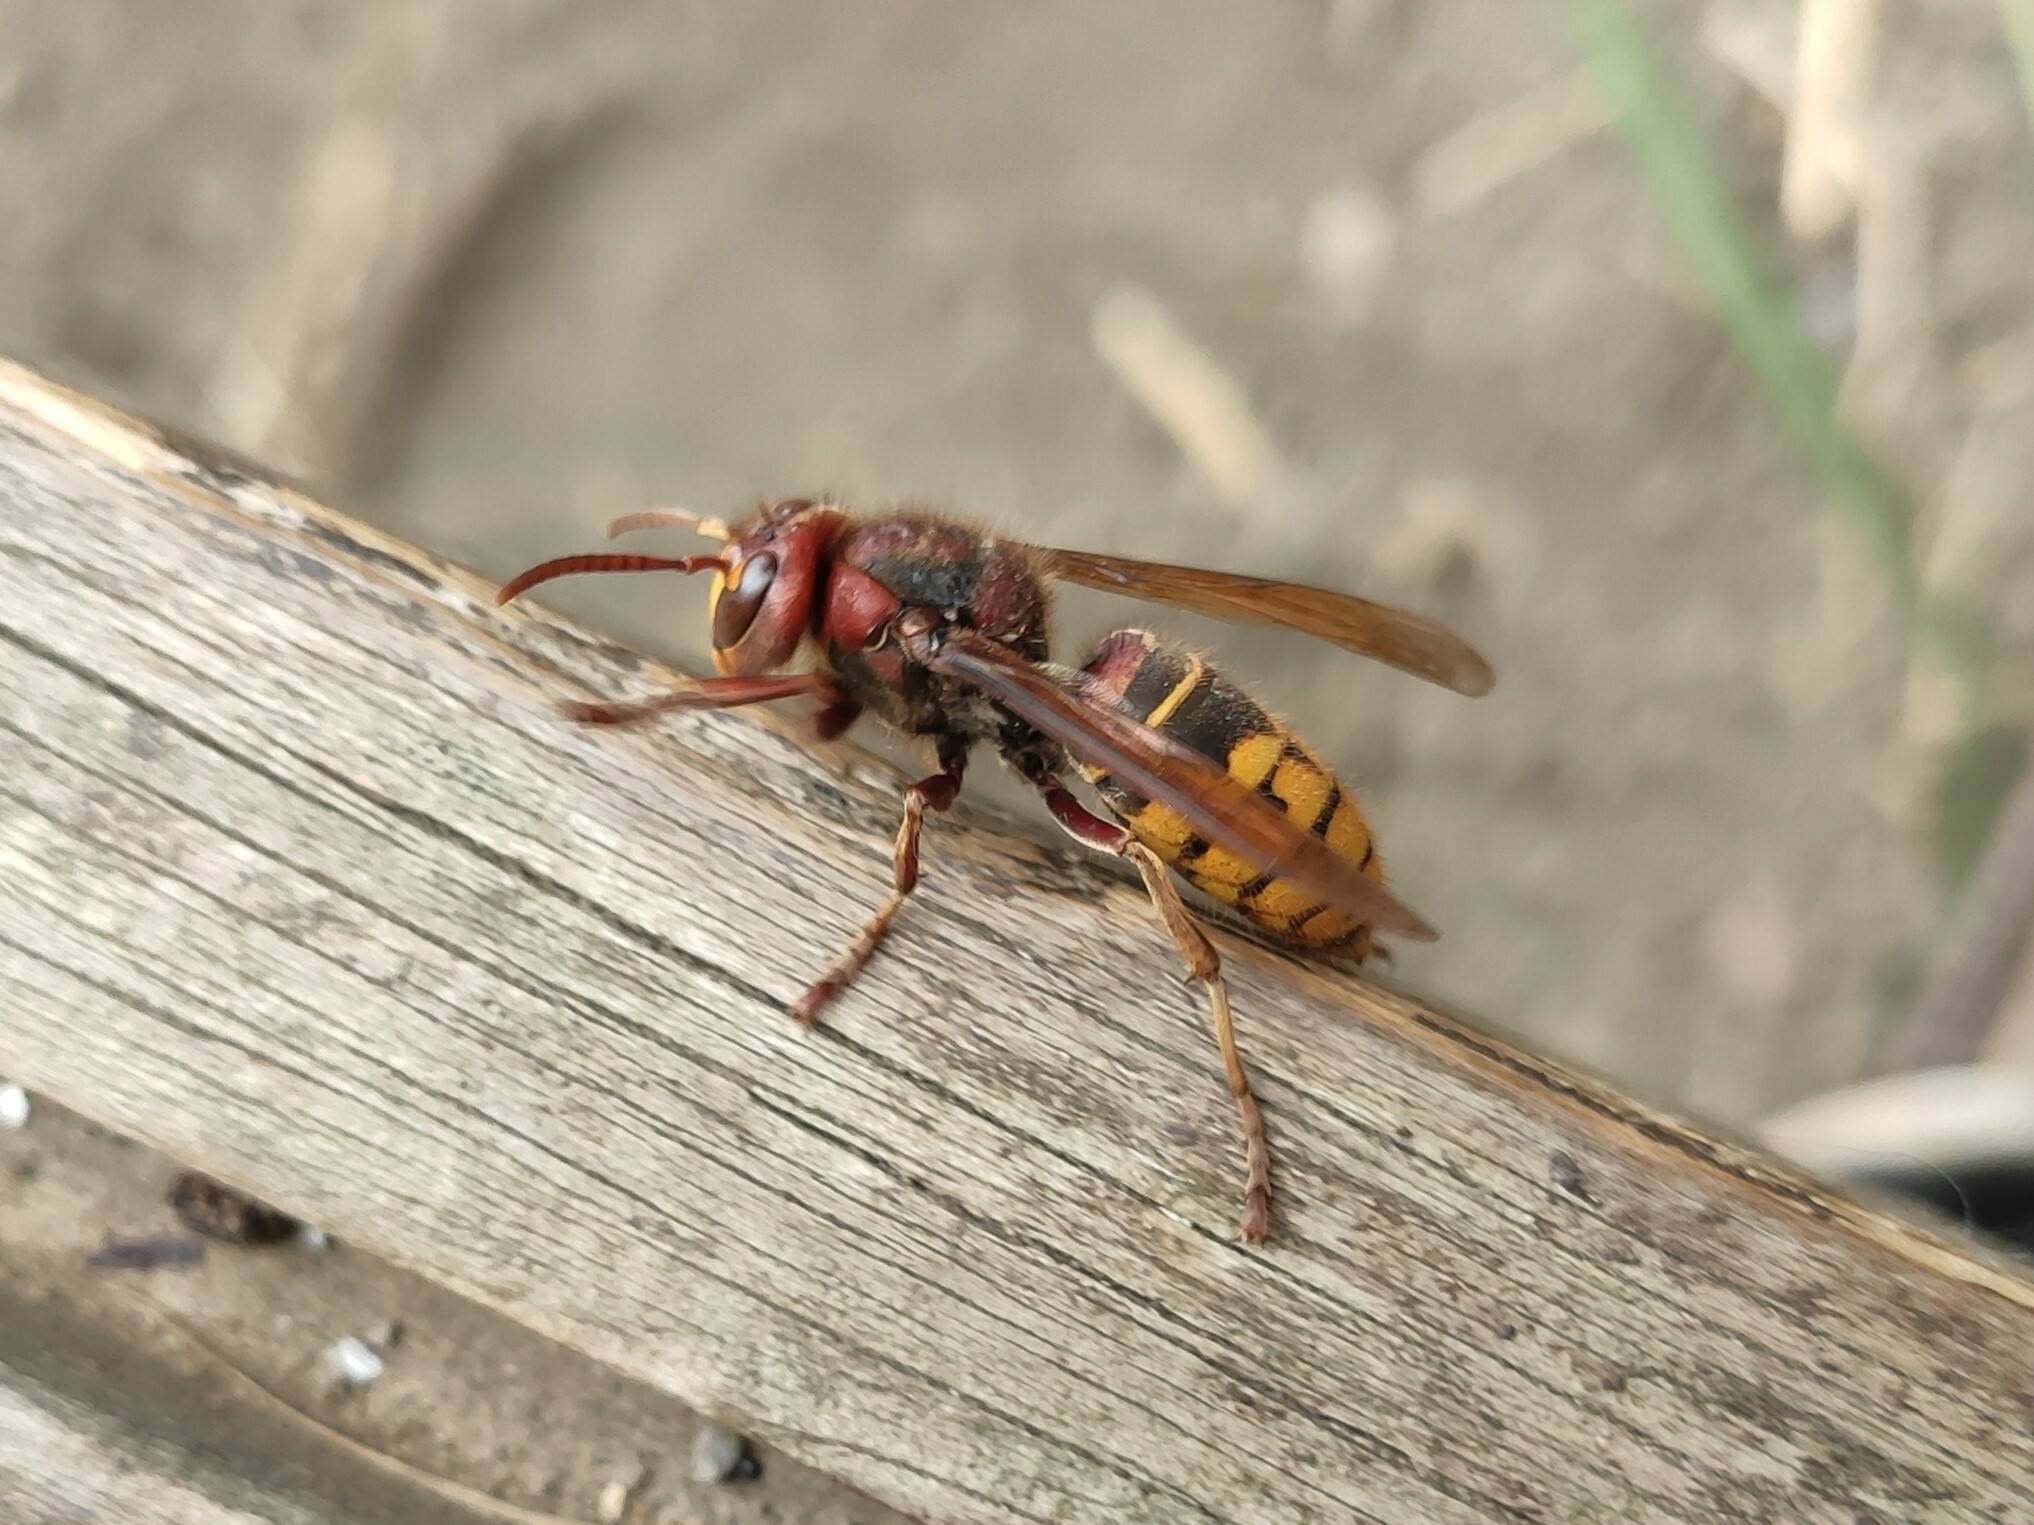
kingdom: Animalia
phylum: Arthropoda
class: Insecta
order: Hymenoptera
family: Vespidae
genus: Vespa
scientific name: Vespa crabro
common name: Hornet
